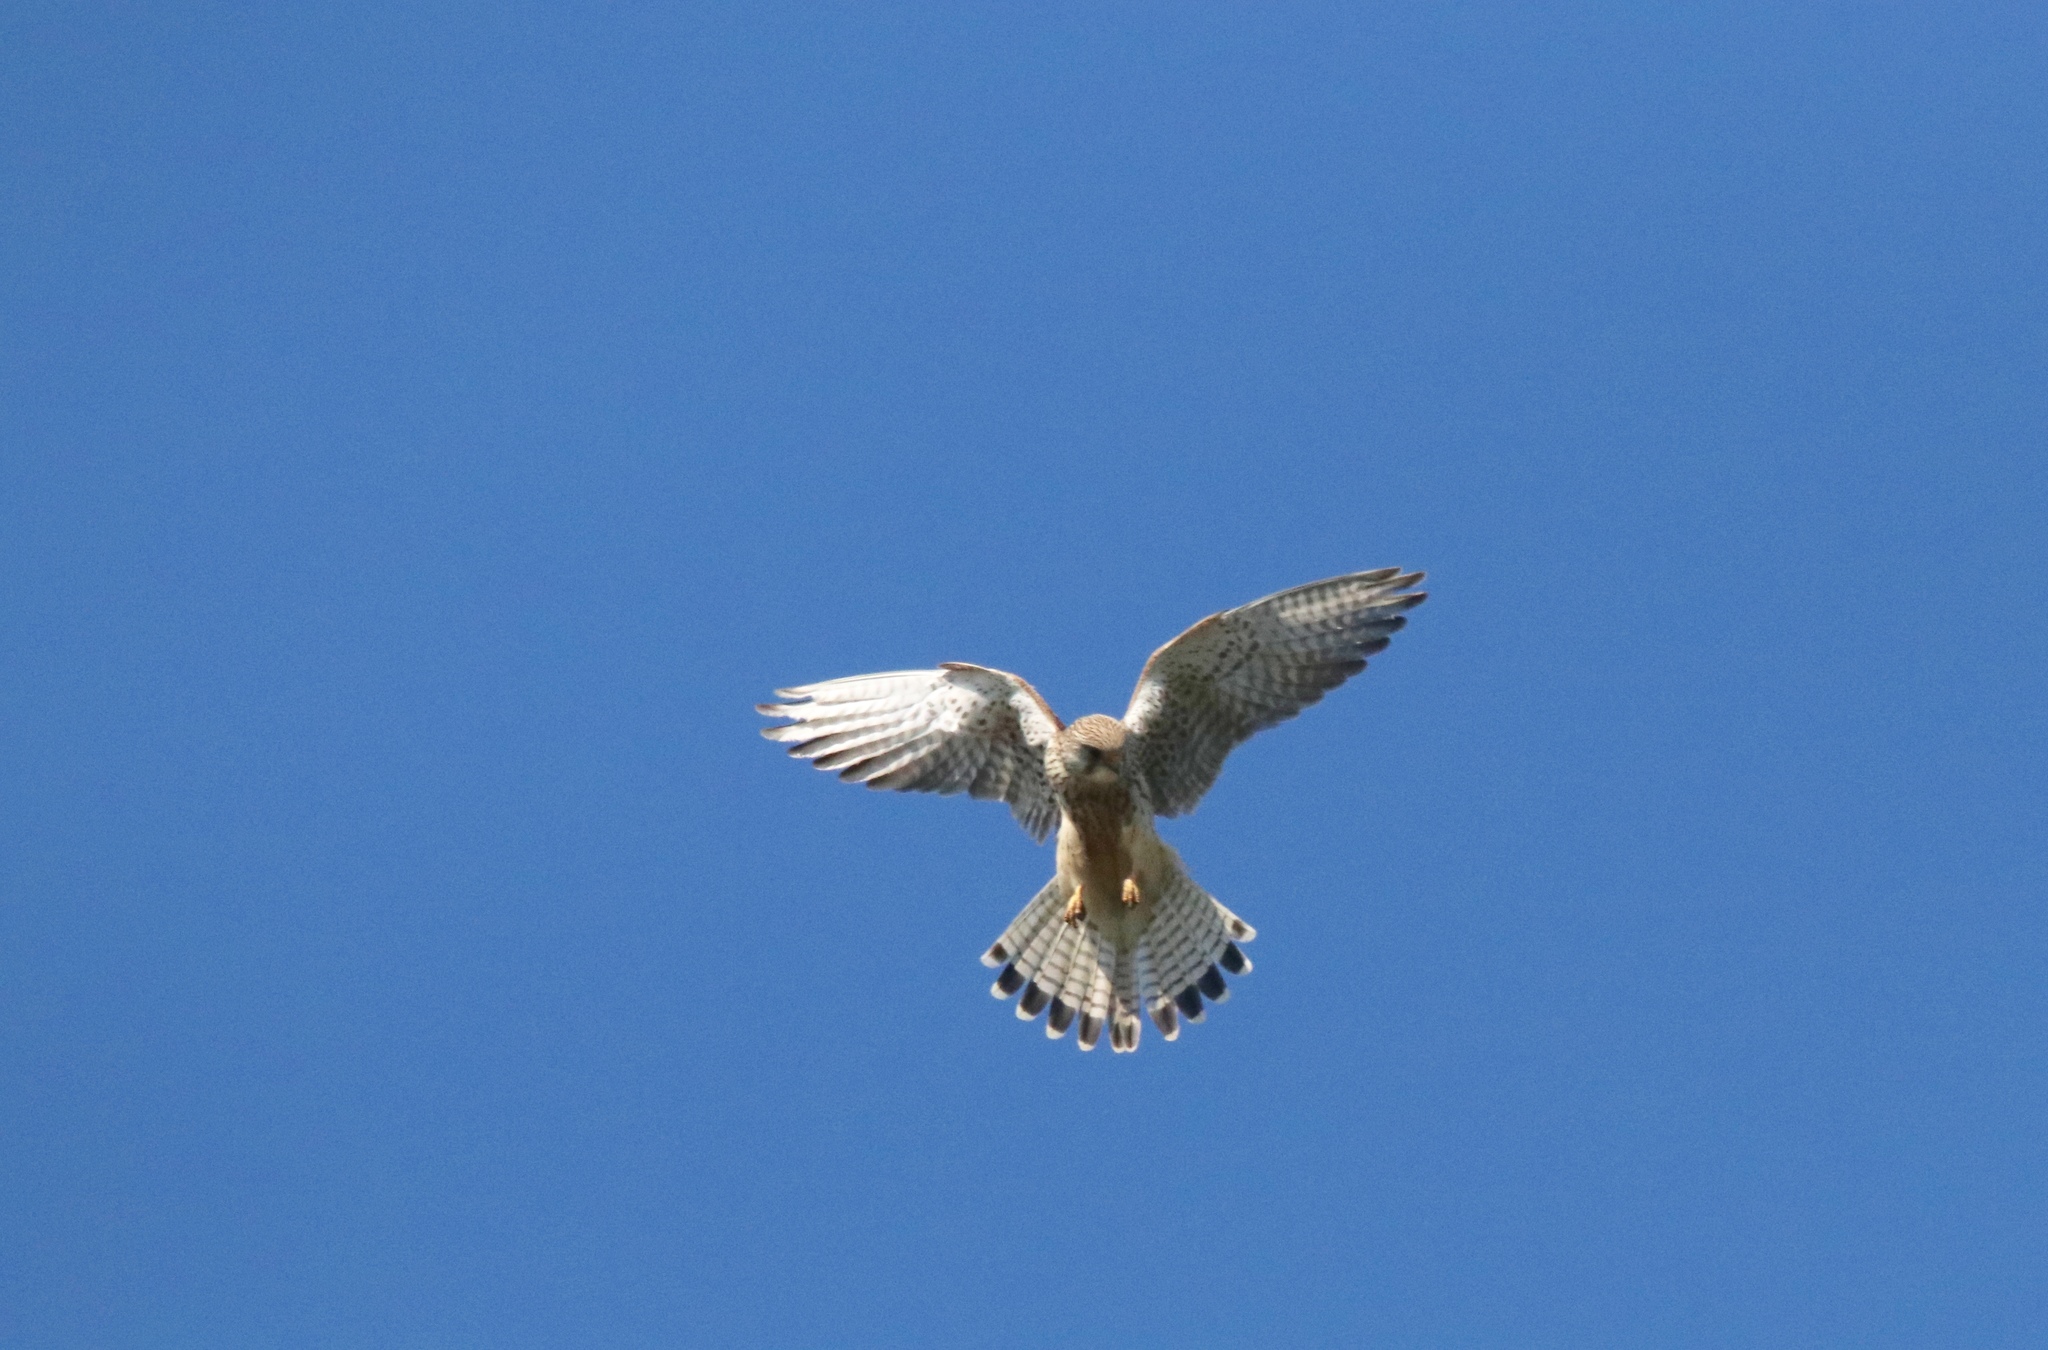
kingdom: Animalia
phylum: Chordata
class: Aves
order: Falconiformes
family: Falconidae
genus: Falco
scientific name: Falco tinnunculus
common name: Common kestrel
